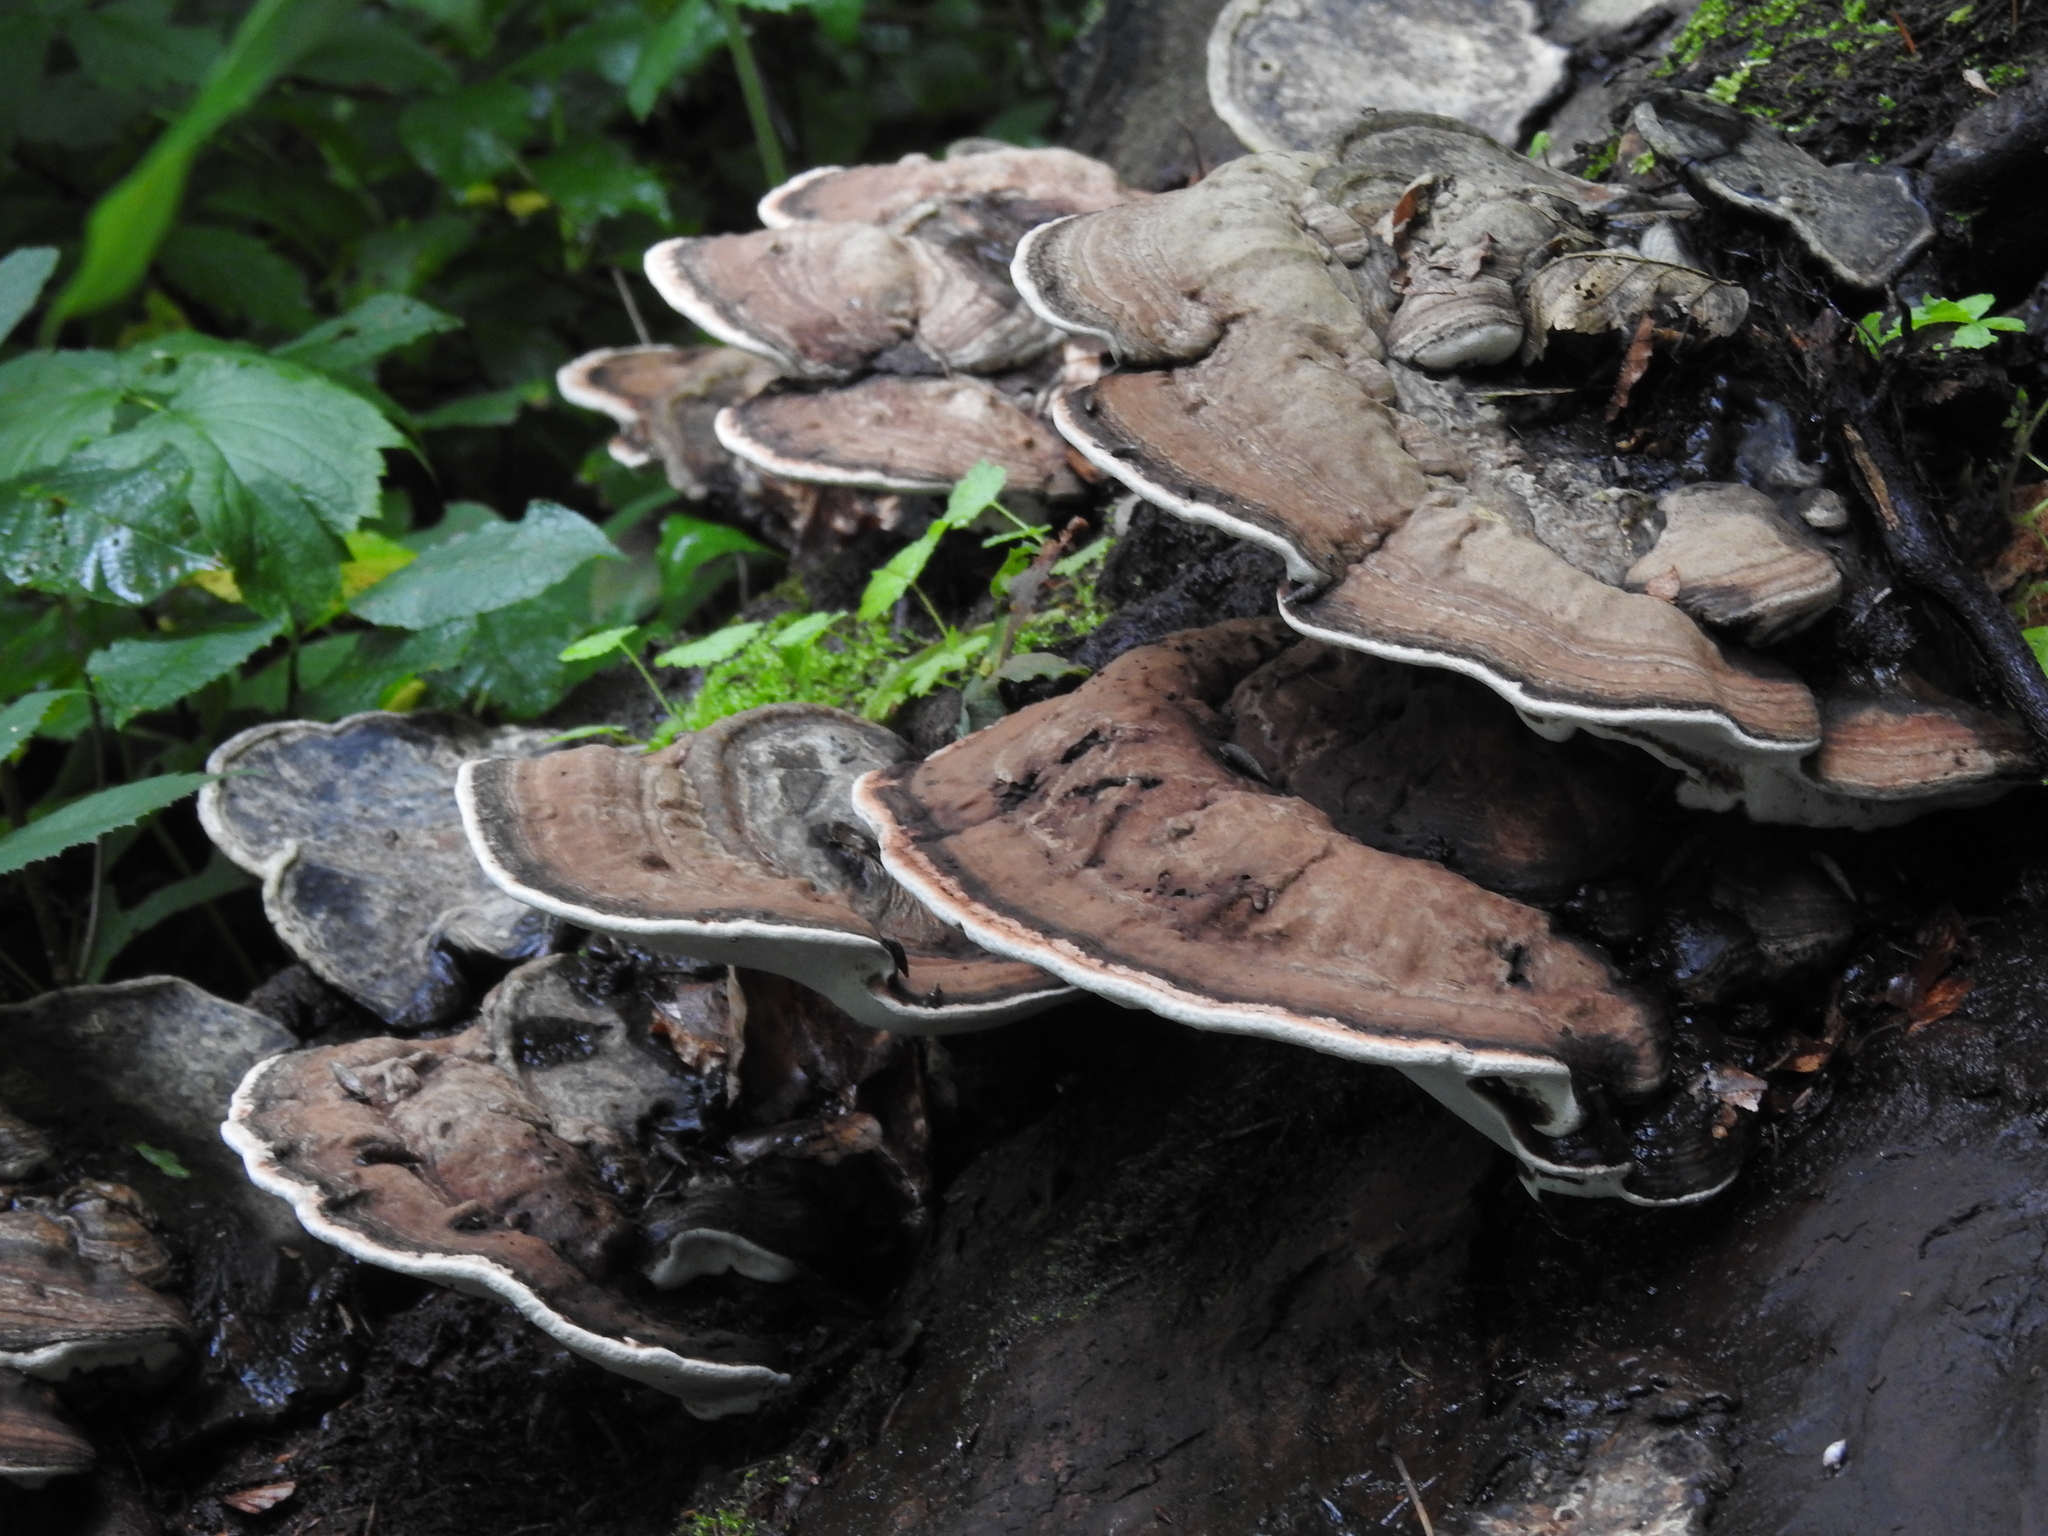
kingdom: Fungi
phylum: Basidiomycota
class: Agaricomycetes
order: Polyporales
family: Polyporaceae
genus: Ganoderma
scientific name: Ganoderma applanatum
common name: Artist's bracket
